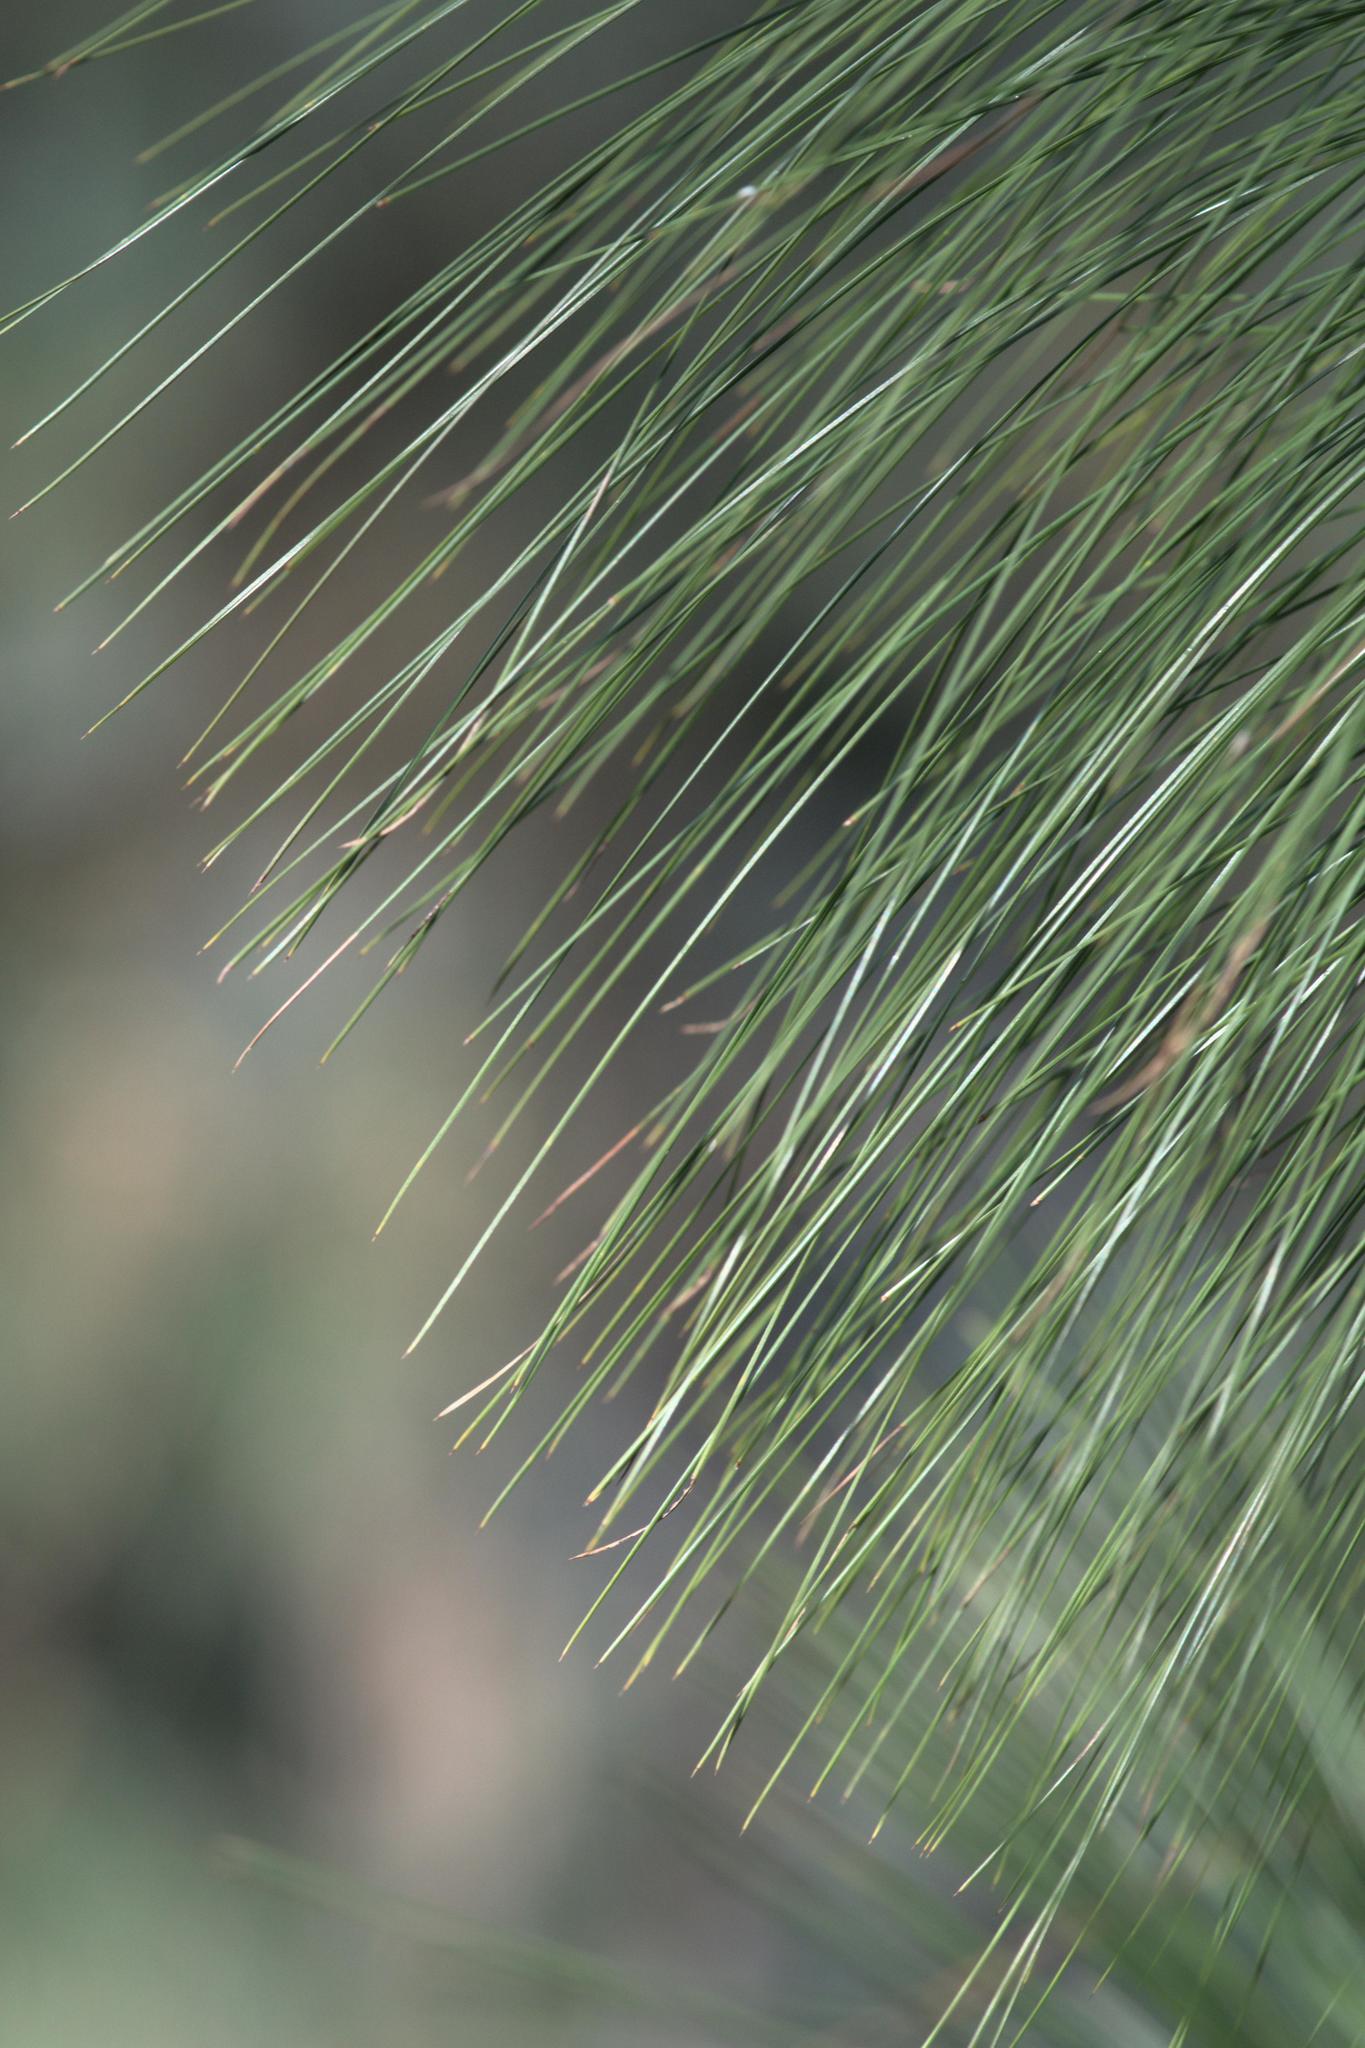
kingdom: Plantae
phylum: Tracheophyta
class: Pinopsida
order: Pinales
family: Pinaceae
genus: Pinus
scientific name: Pinus roxburghii
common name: Chir pine
